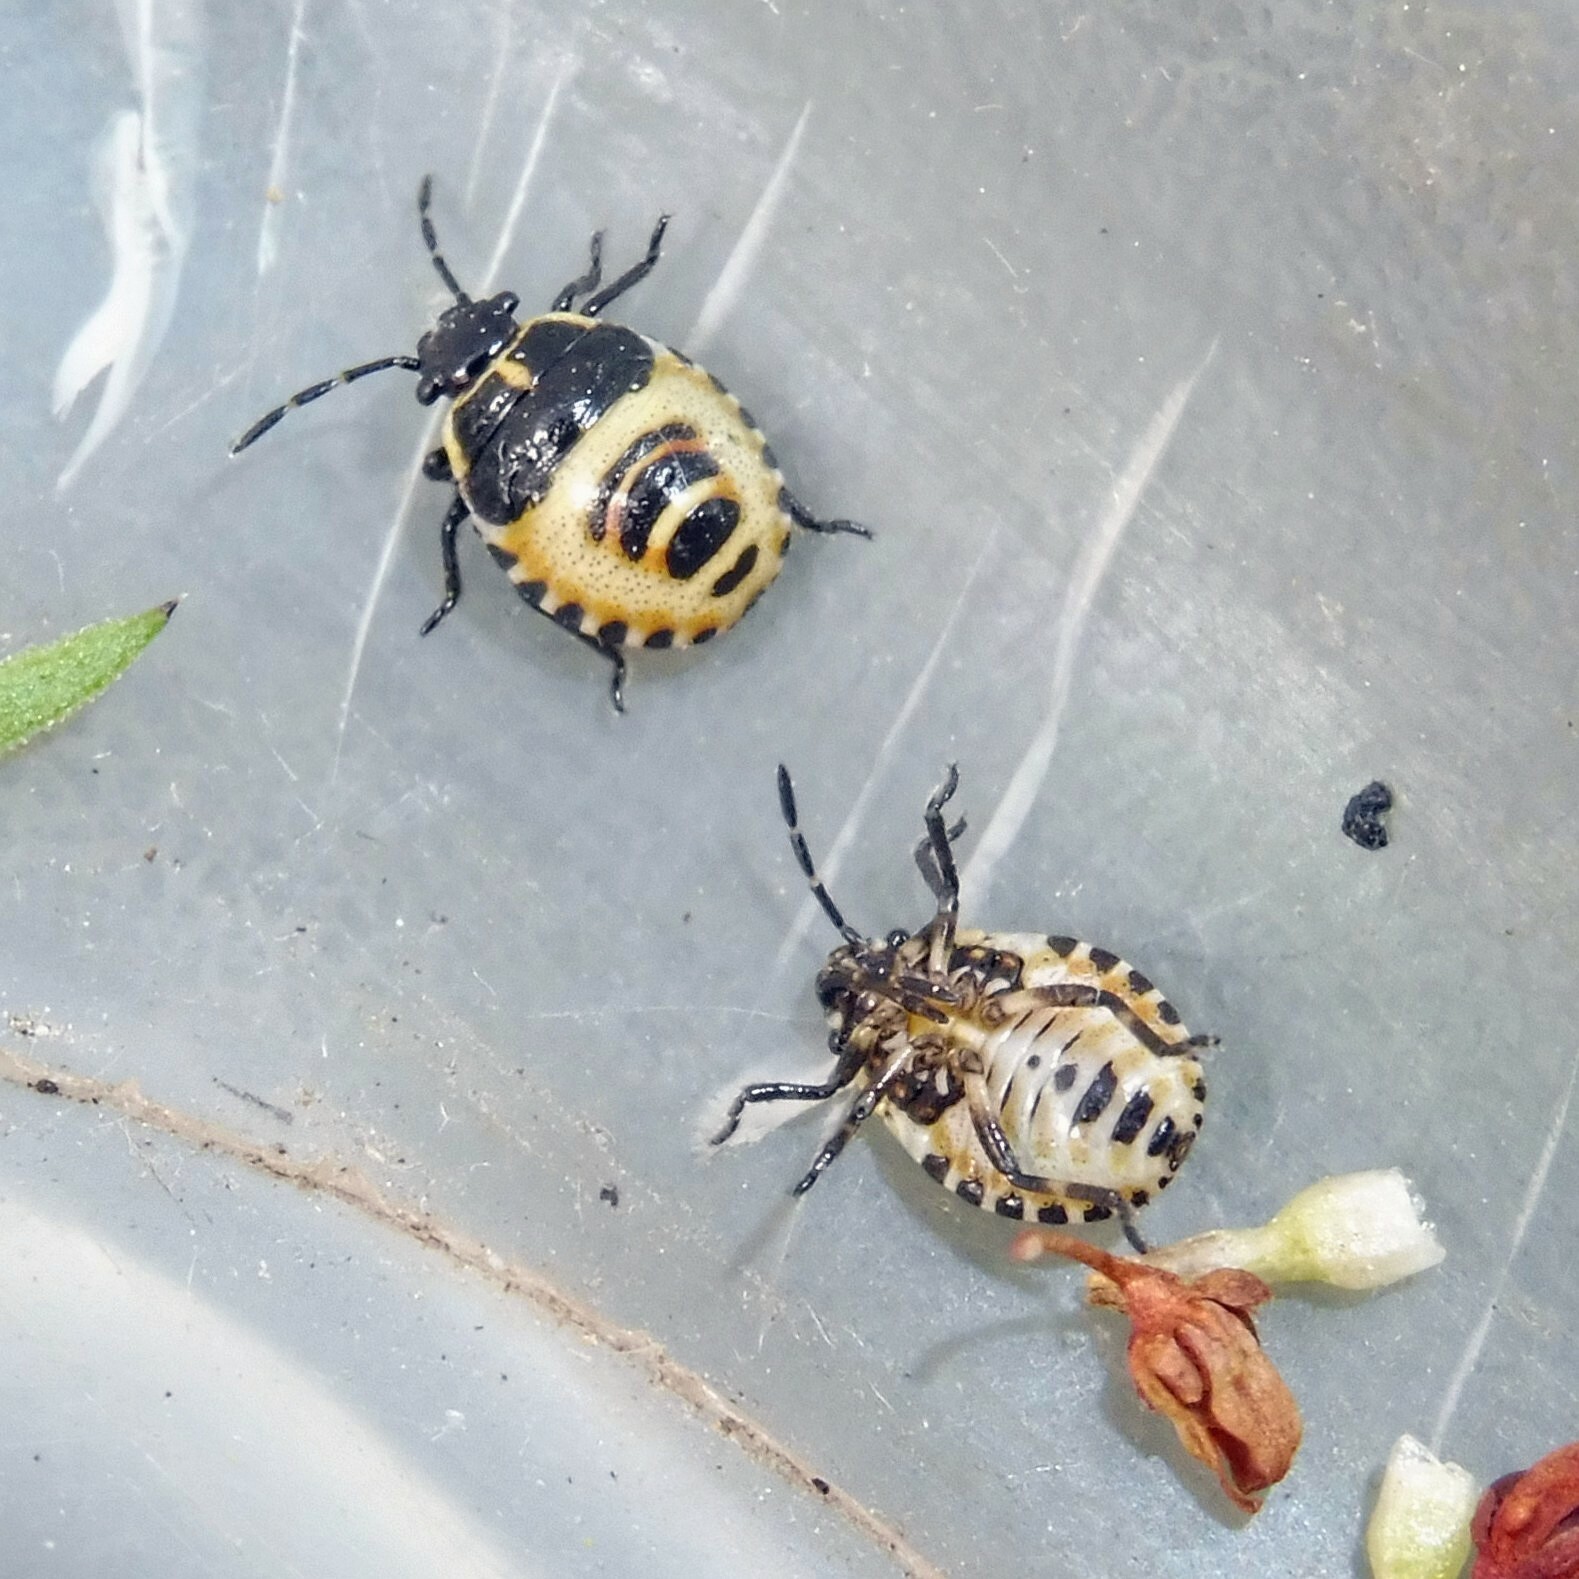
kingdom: Animalia
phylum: Arthropoda
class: Insecta
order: Hemiptera
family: Pentatomidae
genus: Eurydema
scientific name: Eurydema oleracea
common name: Cabbage bug
